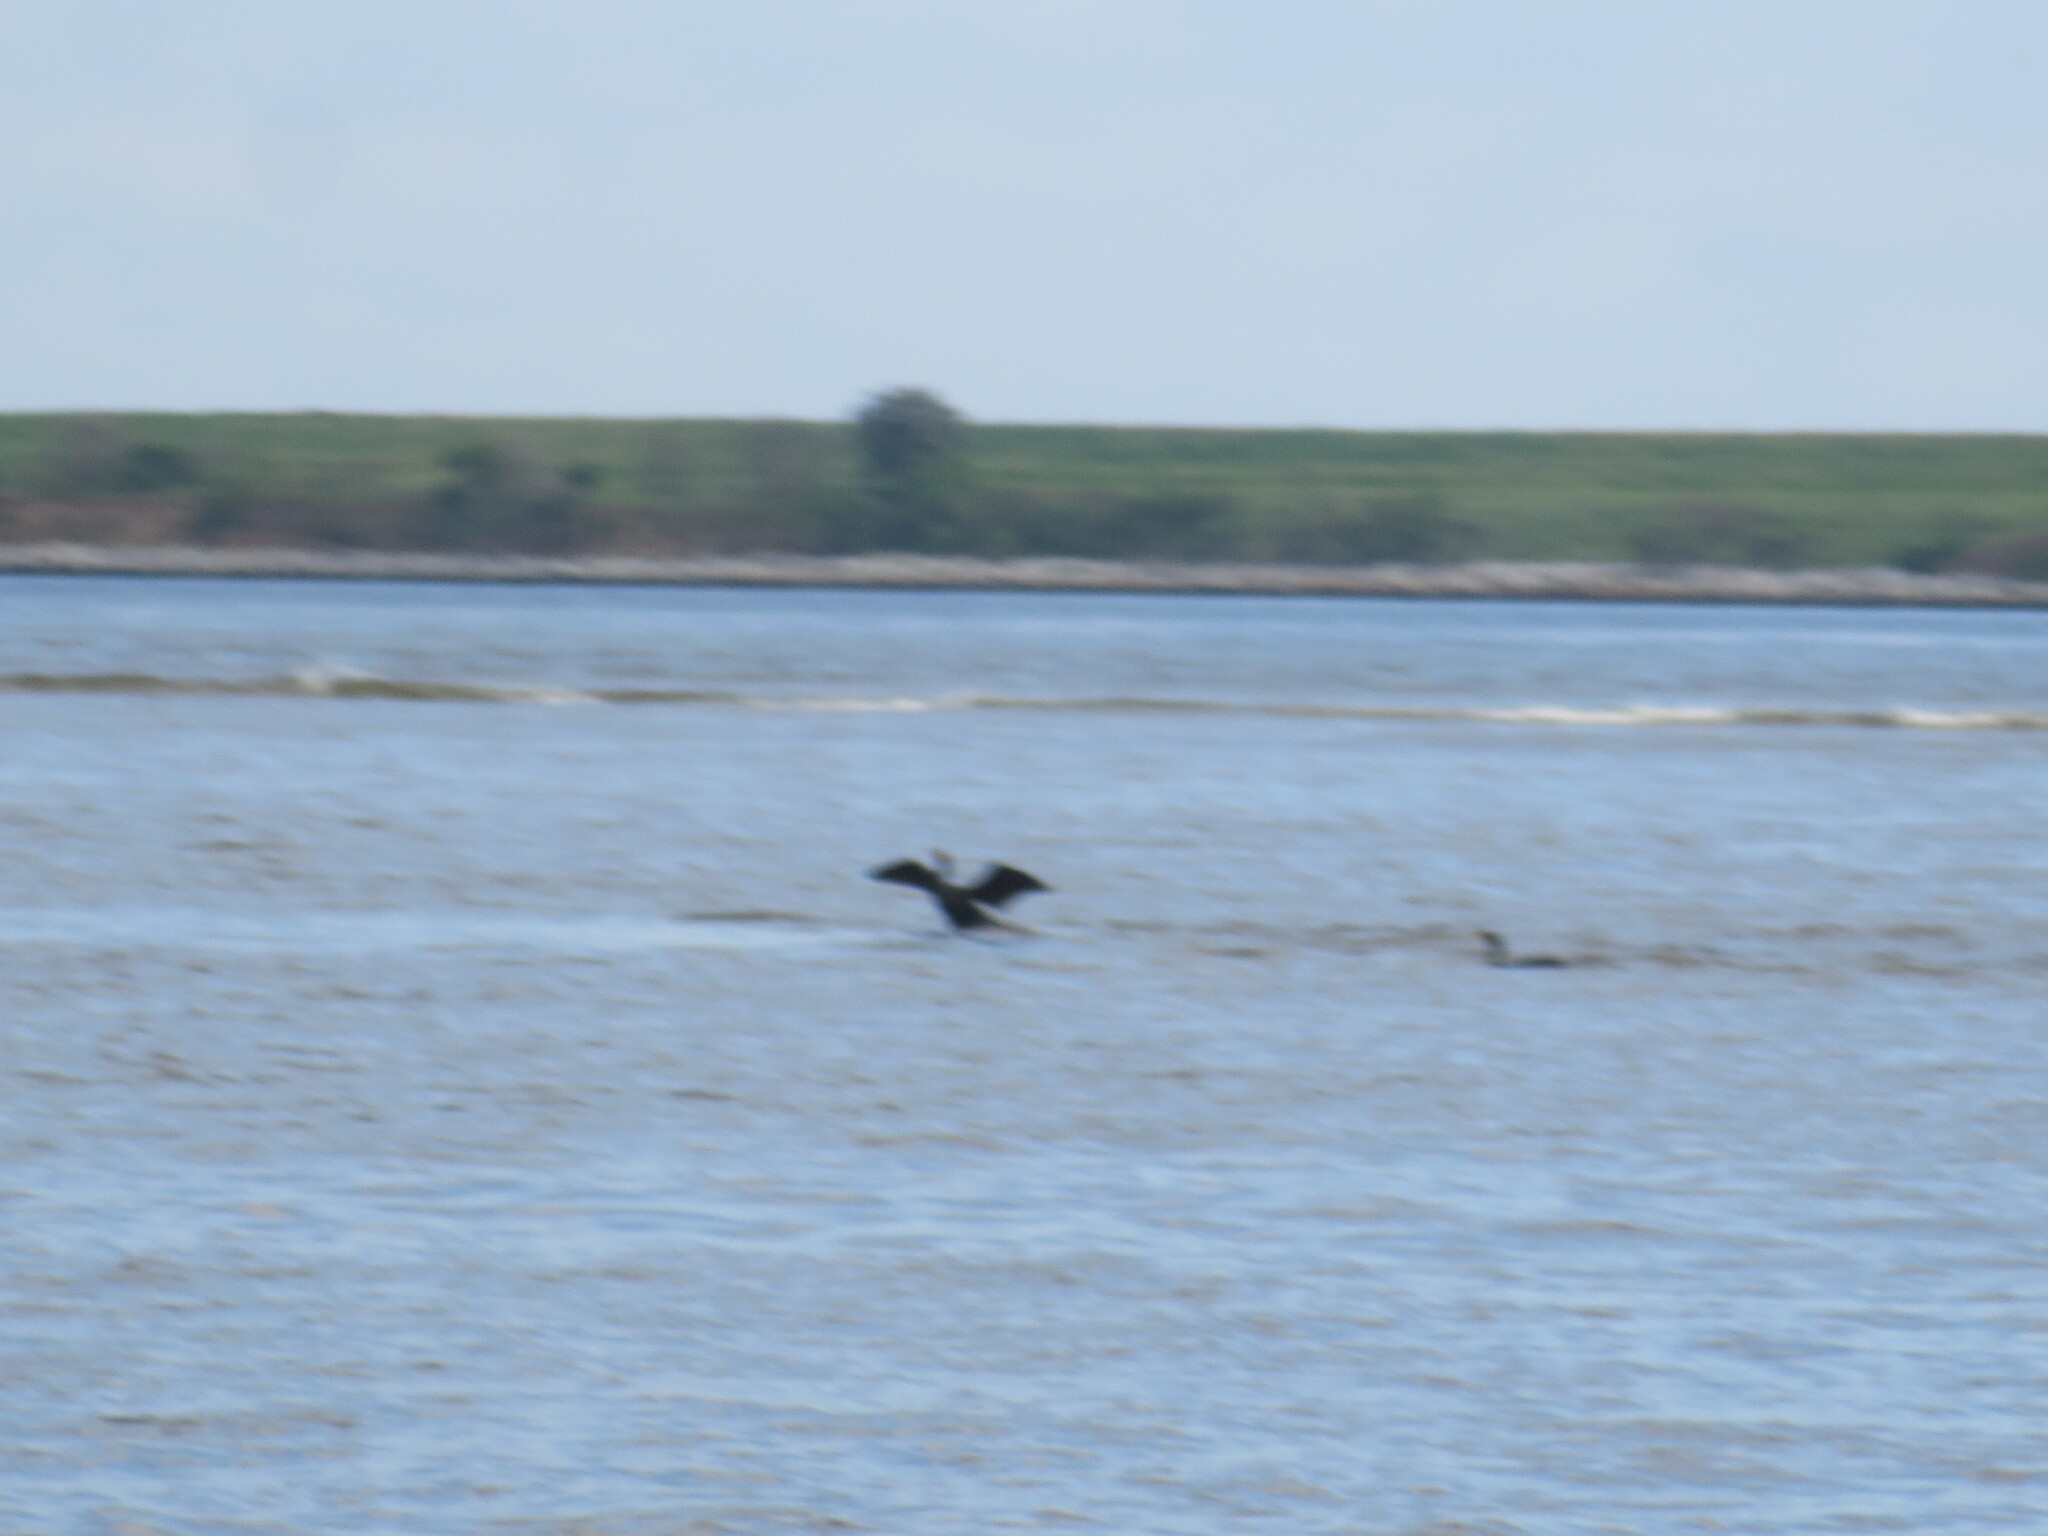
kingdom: Animalia
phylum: Chordata
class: Aves
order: Suliformes
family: Phalacrocoracidae
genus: Phalacrocorax
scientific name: Phalacrocorax auritus
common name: Double-crested cormorant
